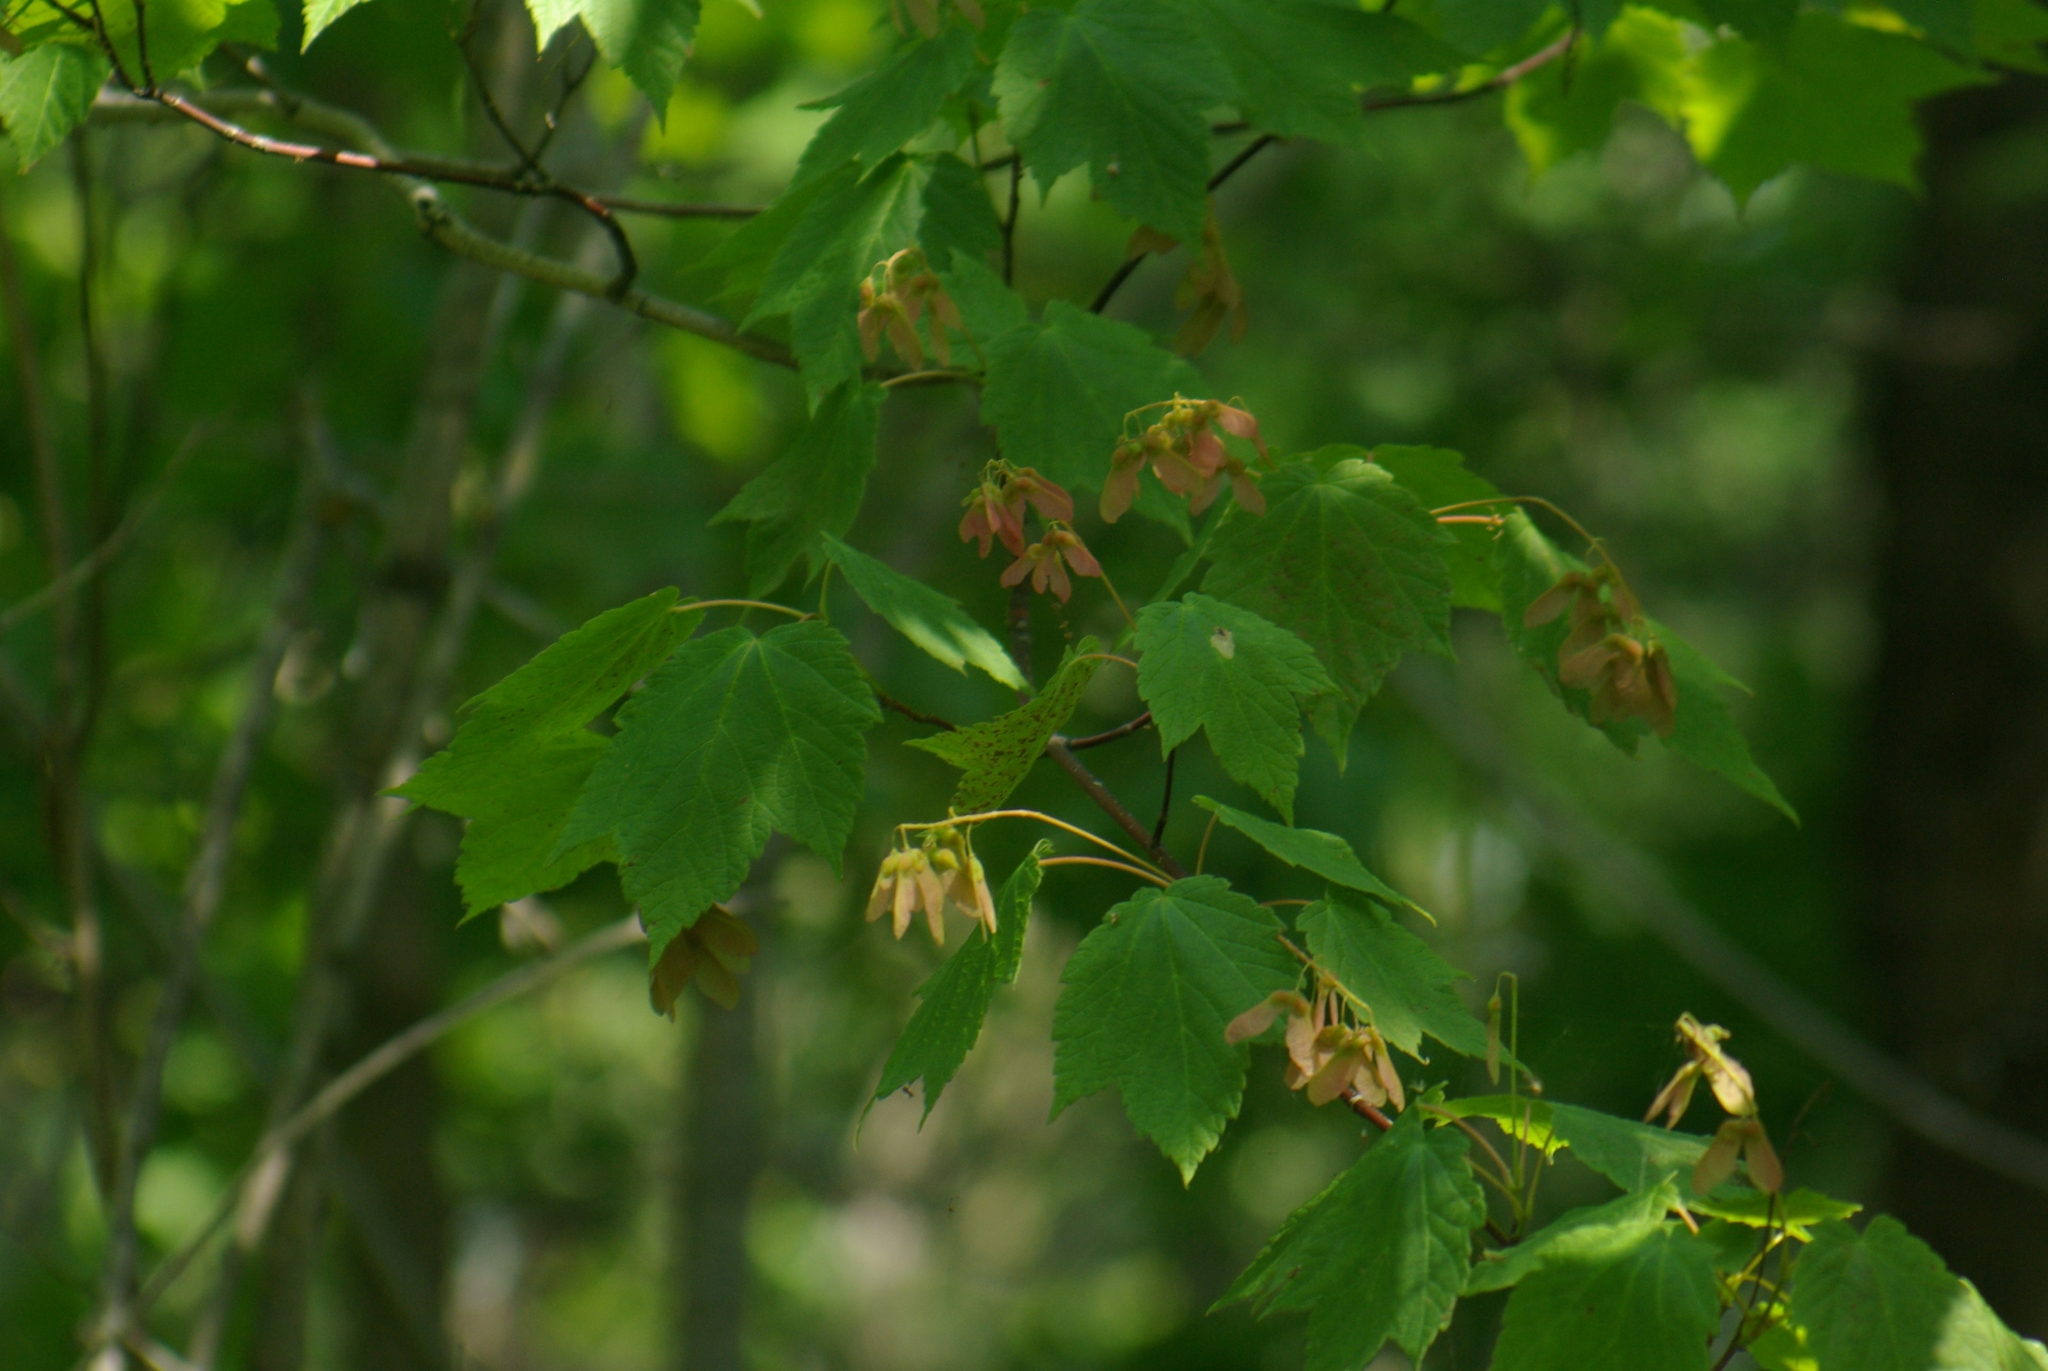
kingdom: Plantae
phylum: Tracheophyta
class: Magnoliopsida
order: Sapindales
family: Sapindaceae
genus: Acer
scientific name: Acer spicatum
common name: Mountain maple
